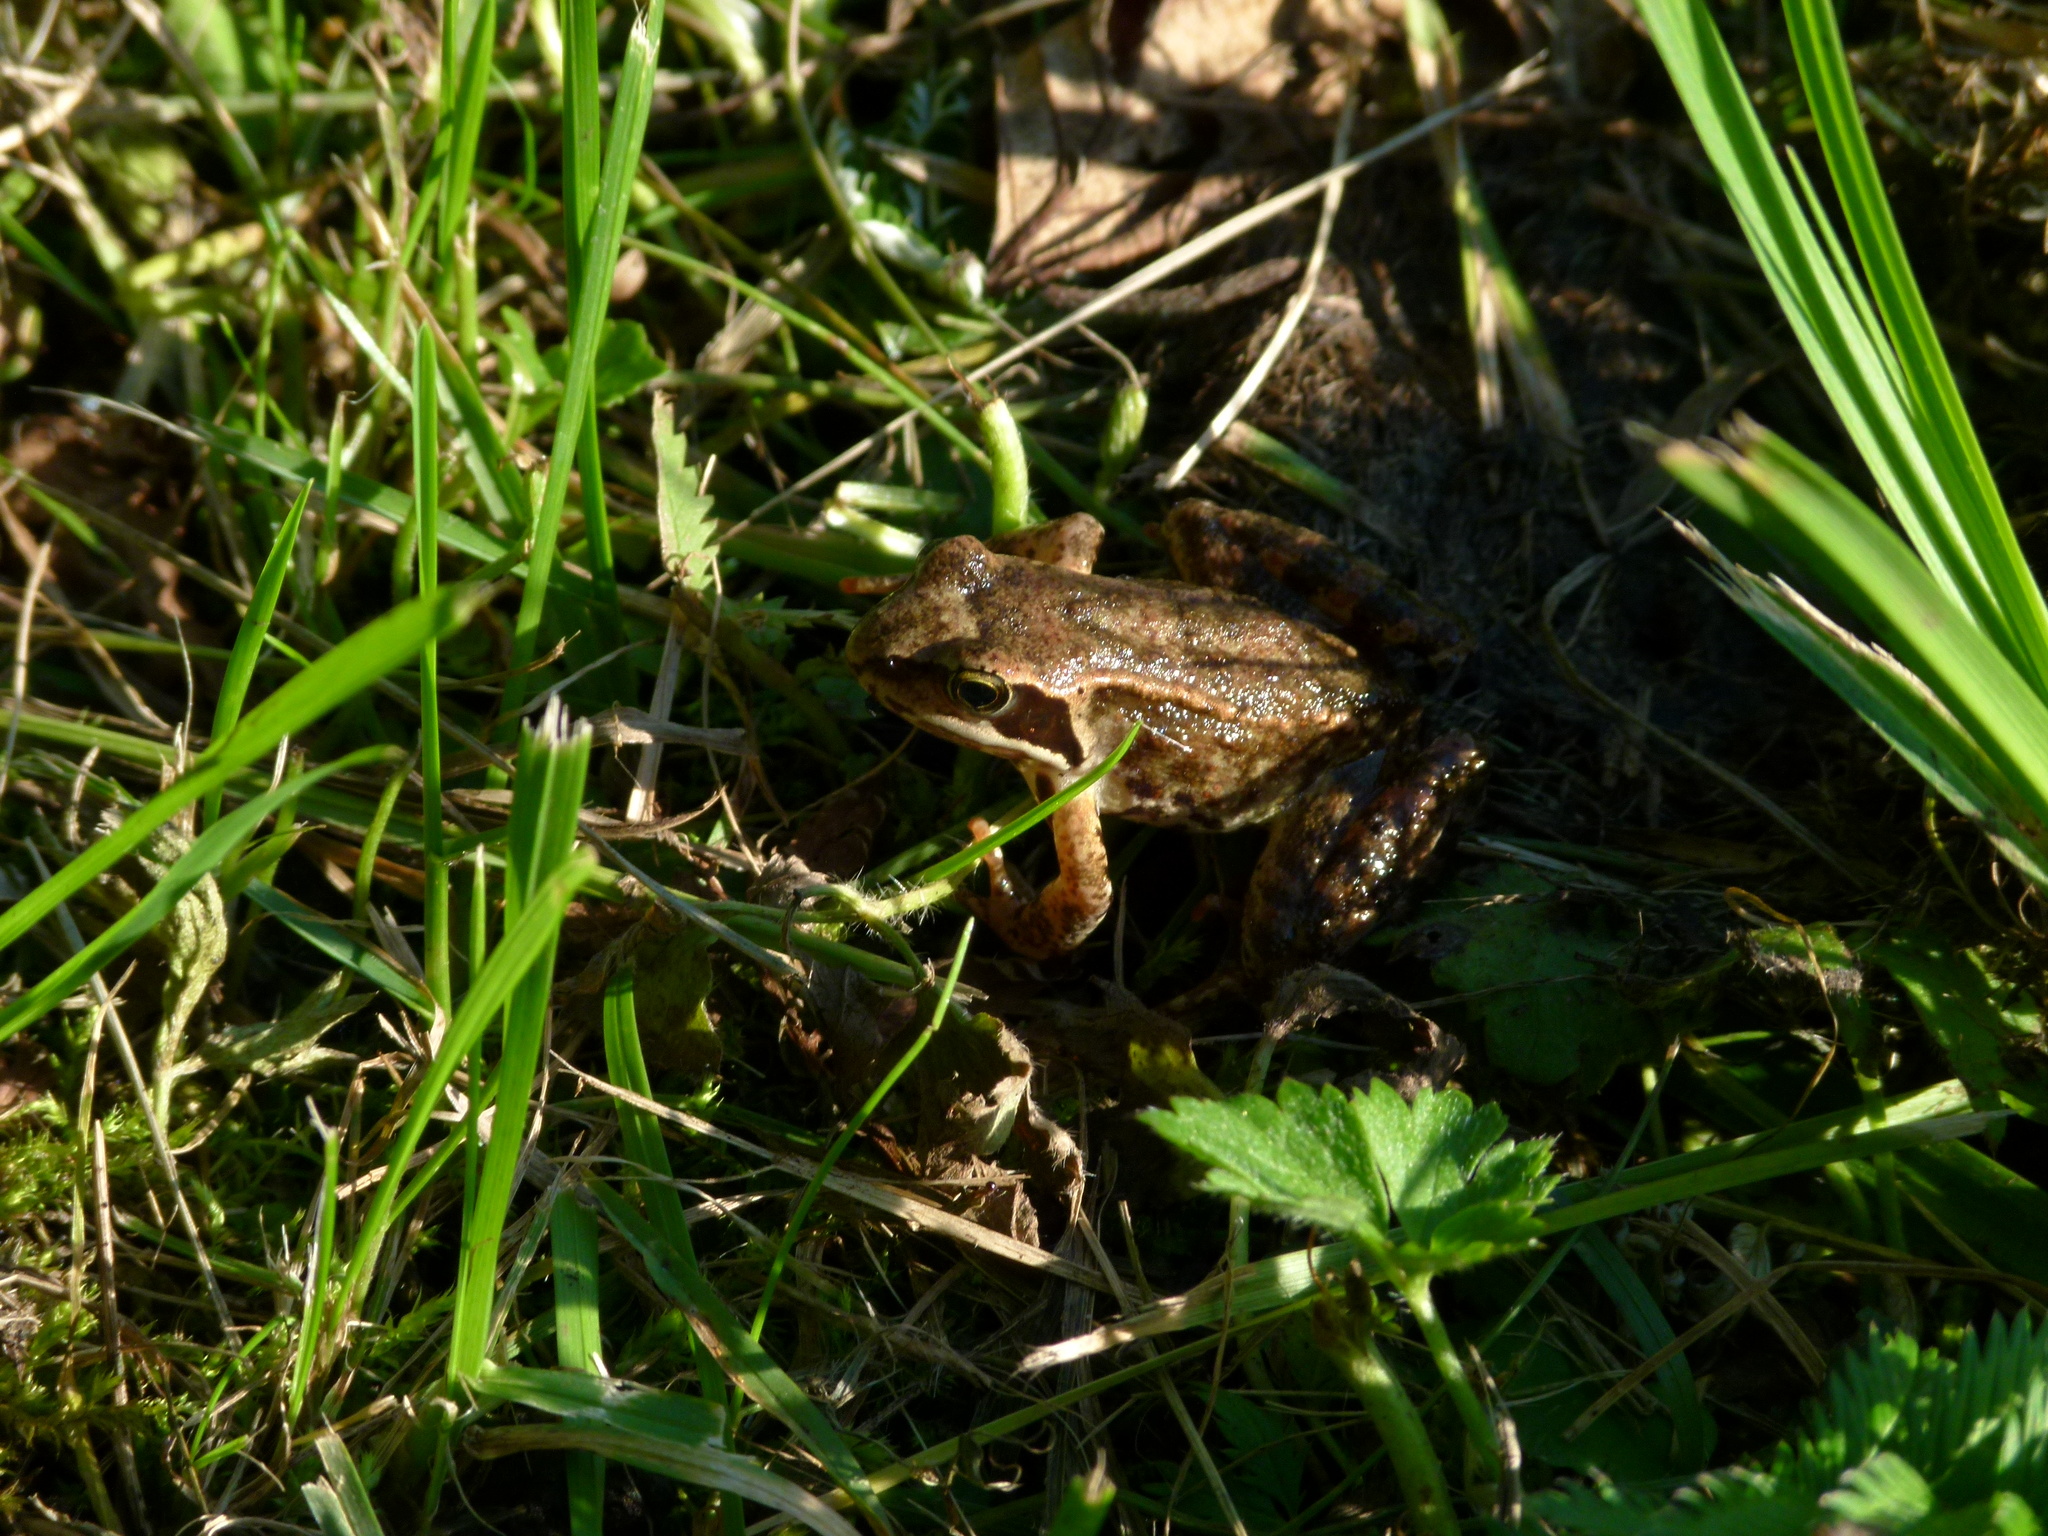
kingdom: Animalia
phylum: Chordata
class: Amphibia
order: Anura
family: Ranidae
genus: Rana
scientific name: Rana temporaria
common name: Common frog
